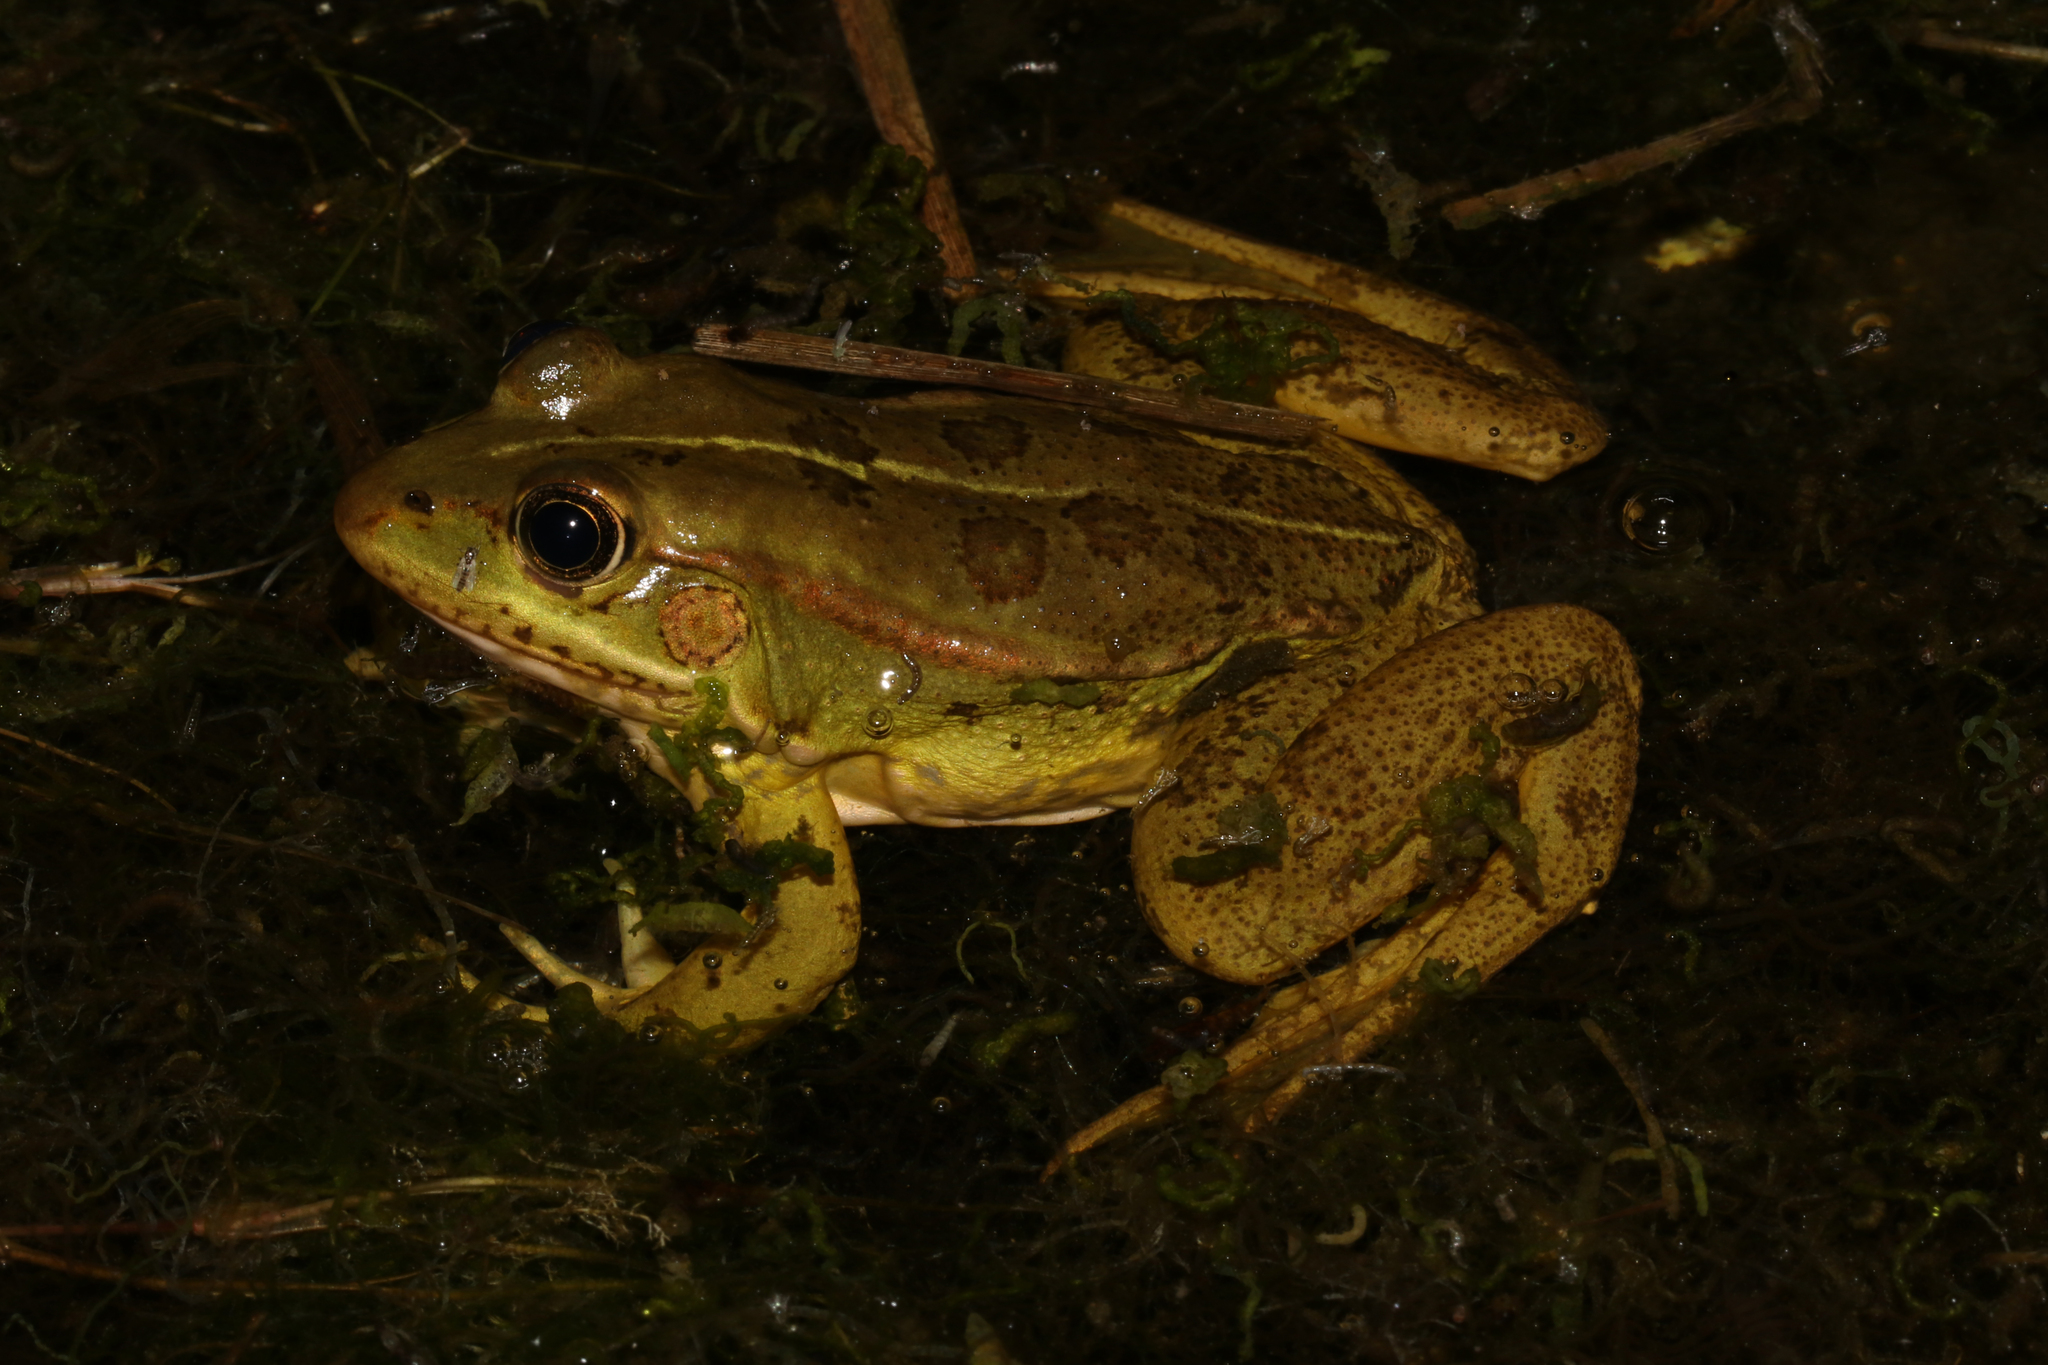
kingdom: Animalia
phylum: Chordata
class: Amphibia
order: Anura
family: Ranidae
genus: Pelophylax
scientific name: Pelophylax epeiroticus
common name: Epirus water frog
